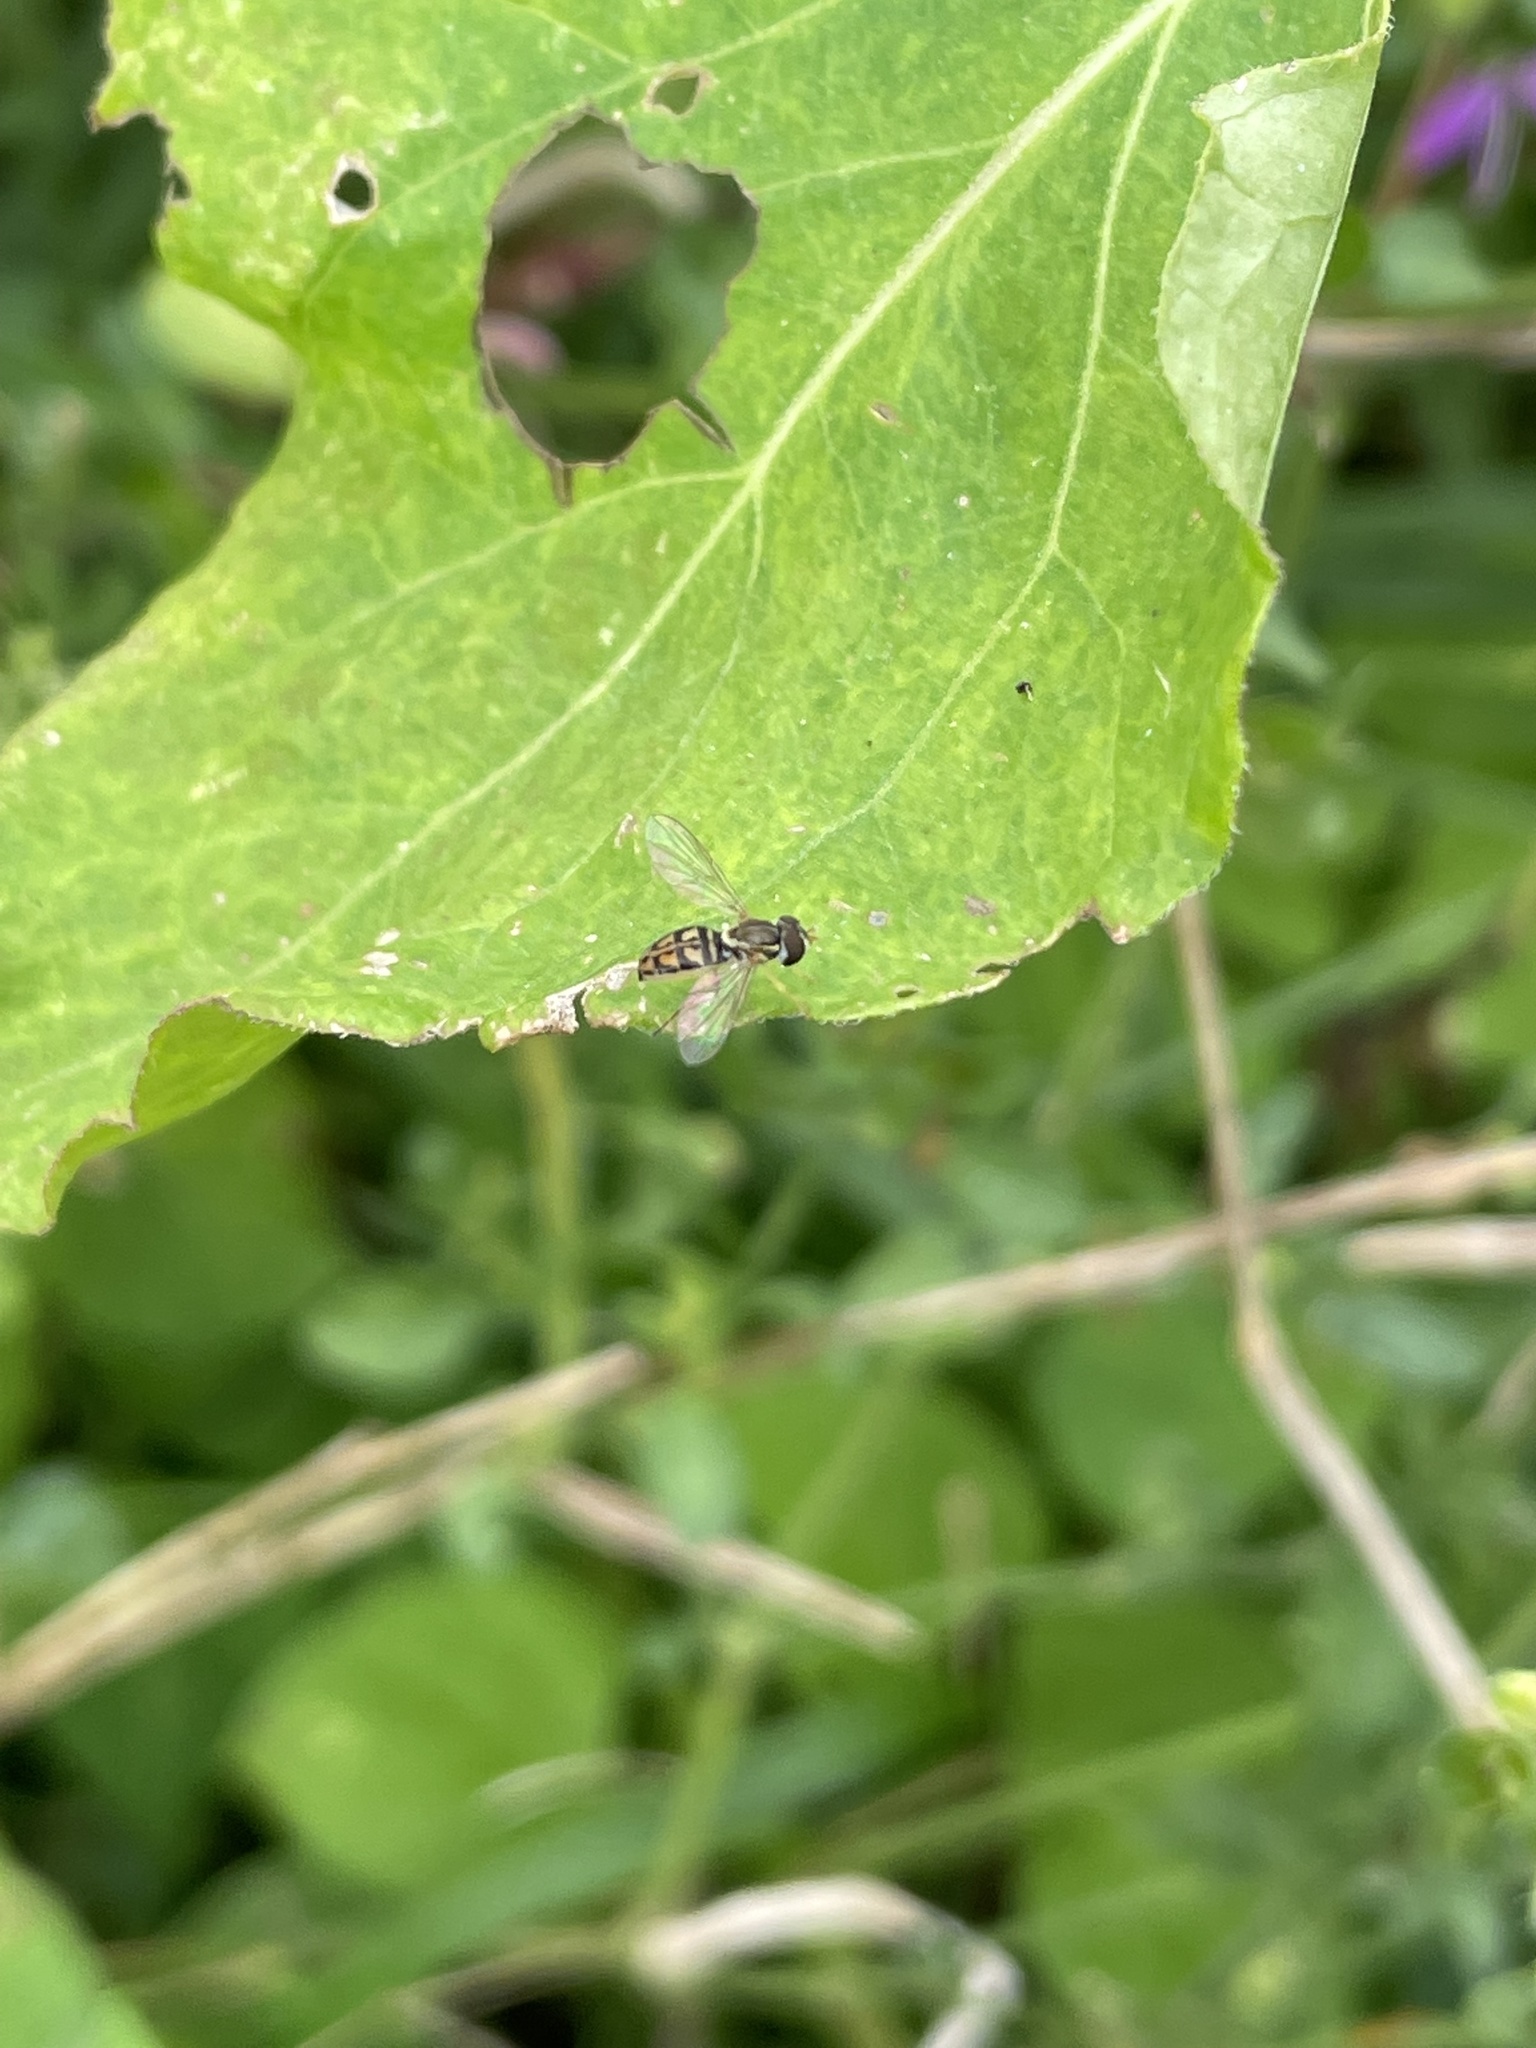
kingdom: Animalia
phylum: Arthropoda
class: Insecta
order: Diptera
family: Syrphidae
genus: Toxomerus
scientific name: Toxomerus marginatus
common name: Syrphid fly
